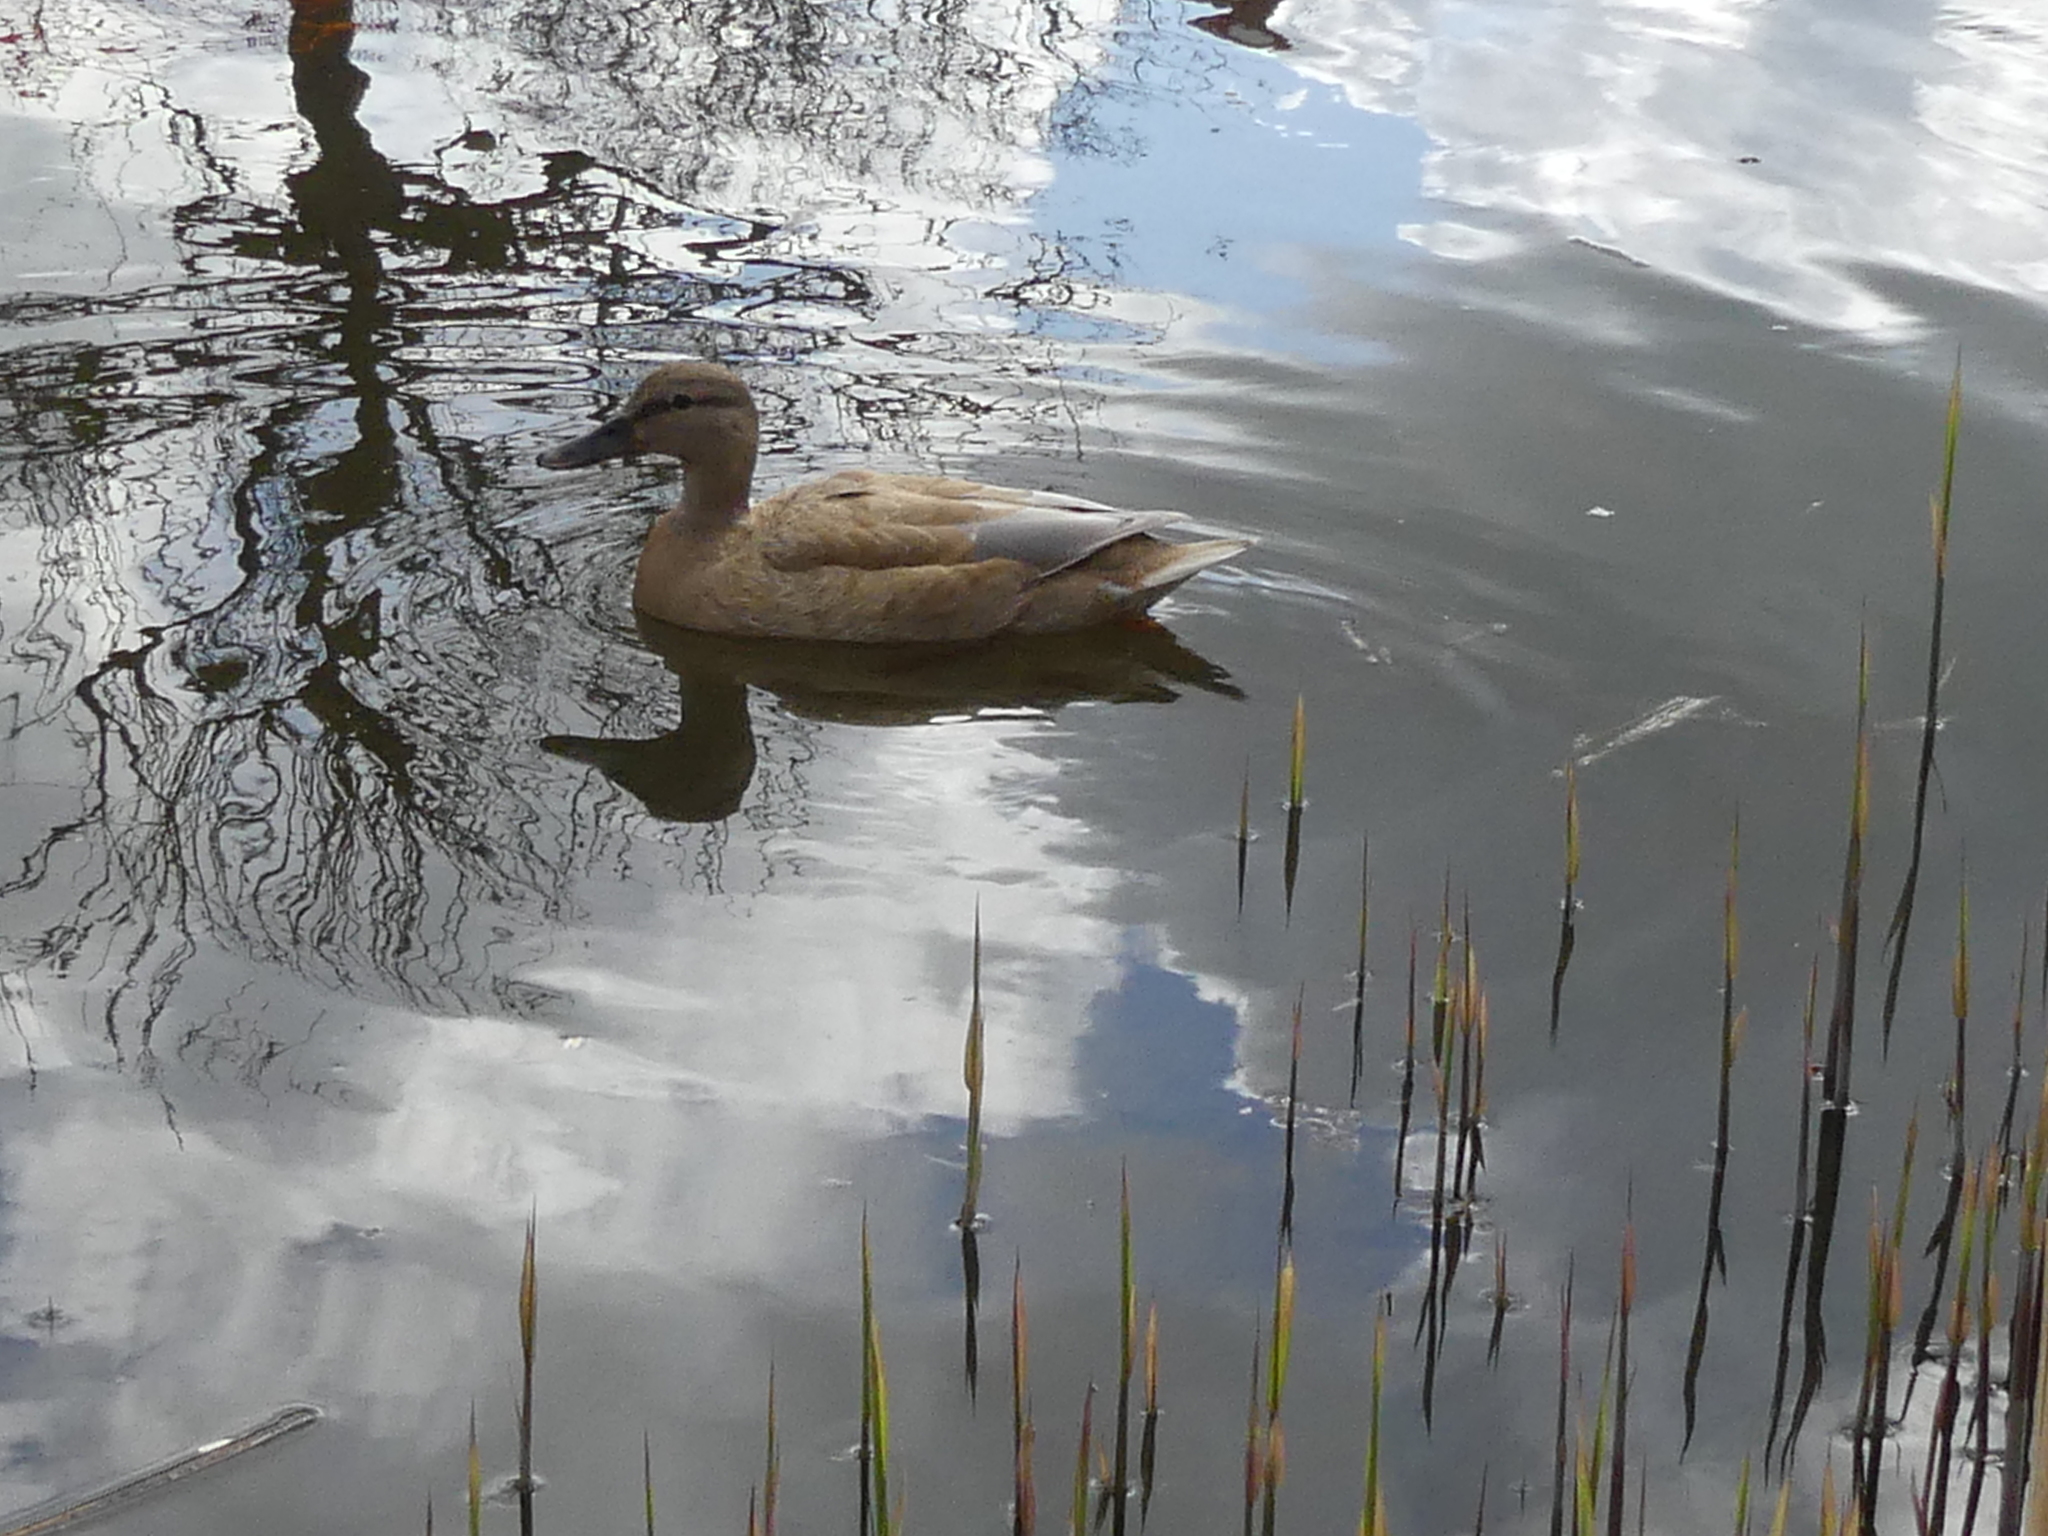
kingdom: Animalia
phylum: Chordata
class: Aves
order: Anseriformes
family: Anatidae
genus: Anas
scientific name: Anas platyrhynchos
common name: Mallard
